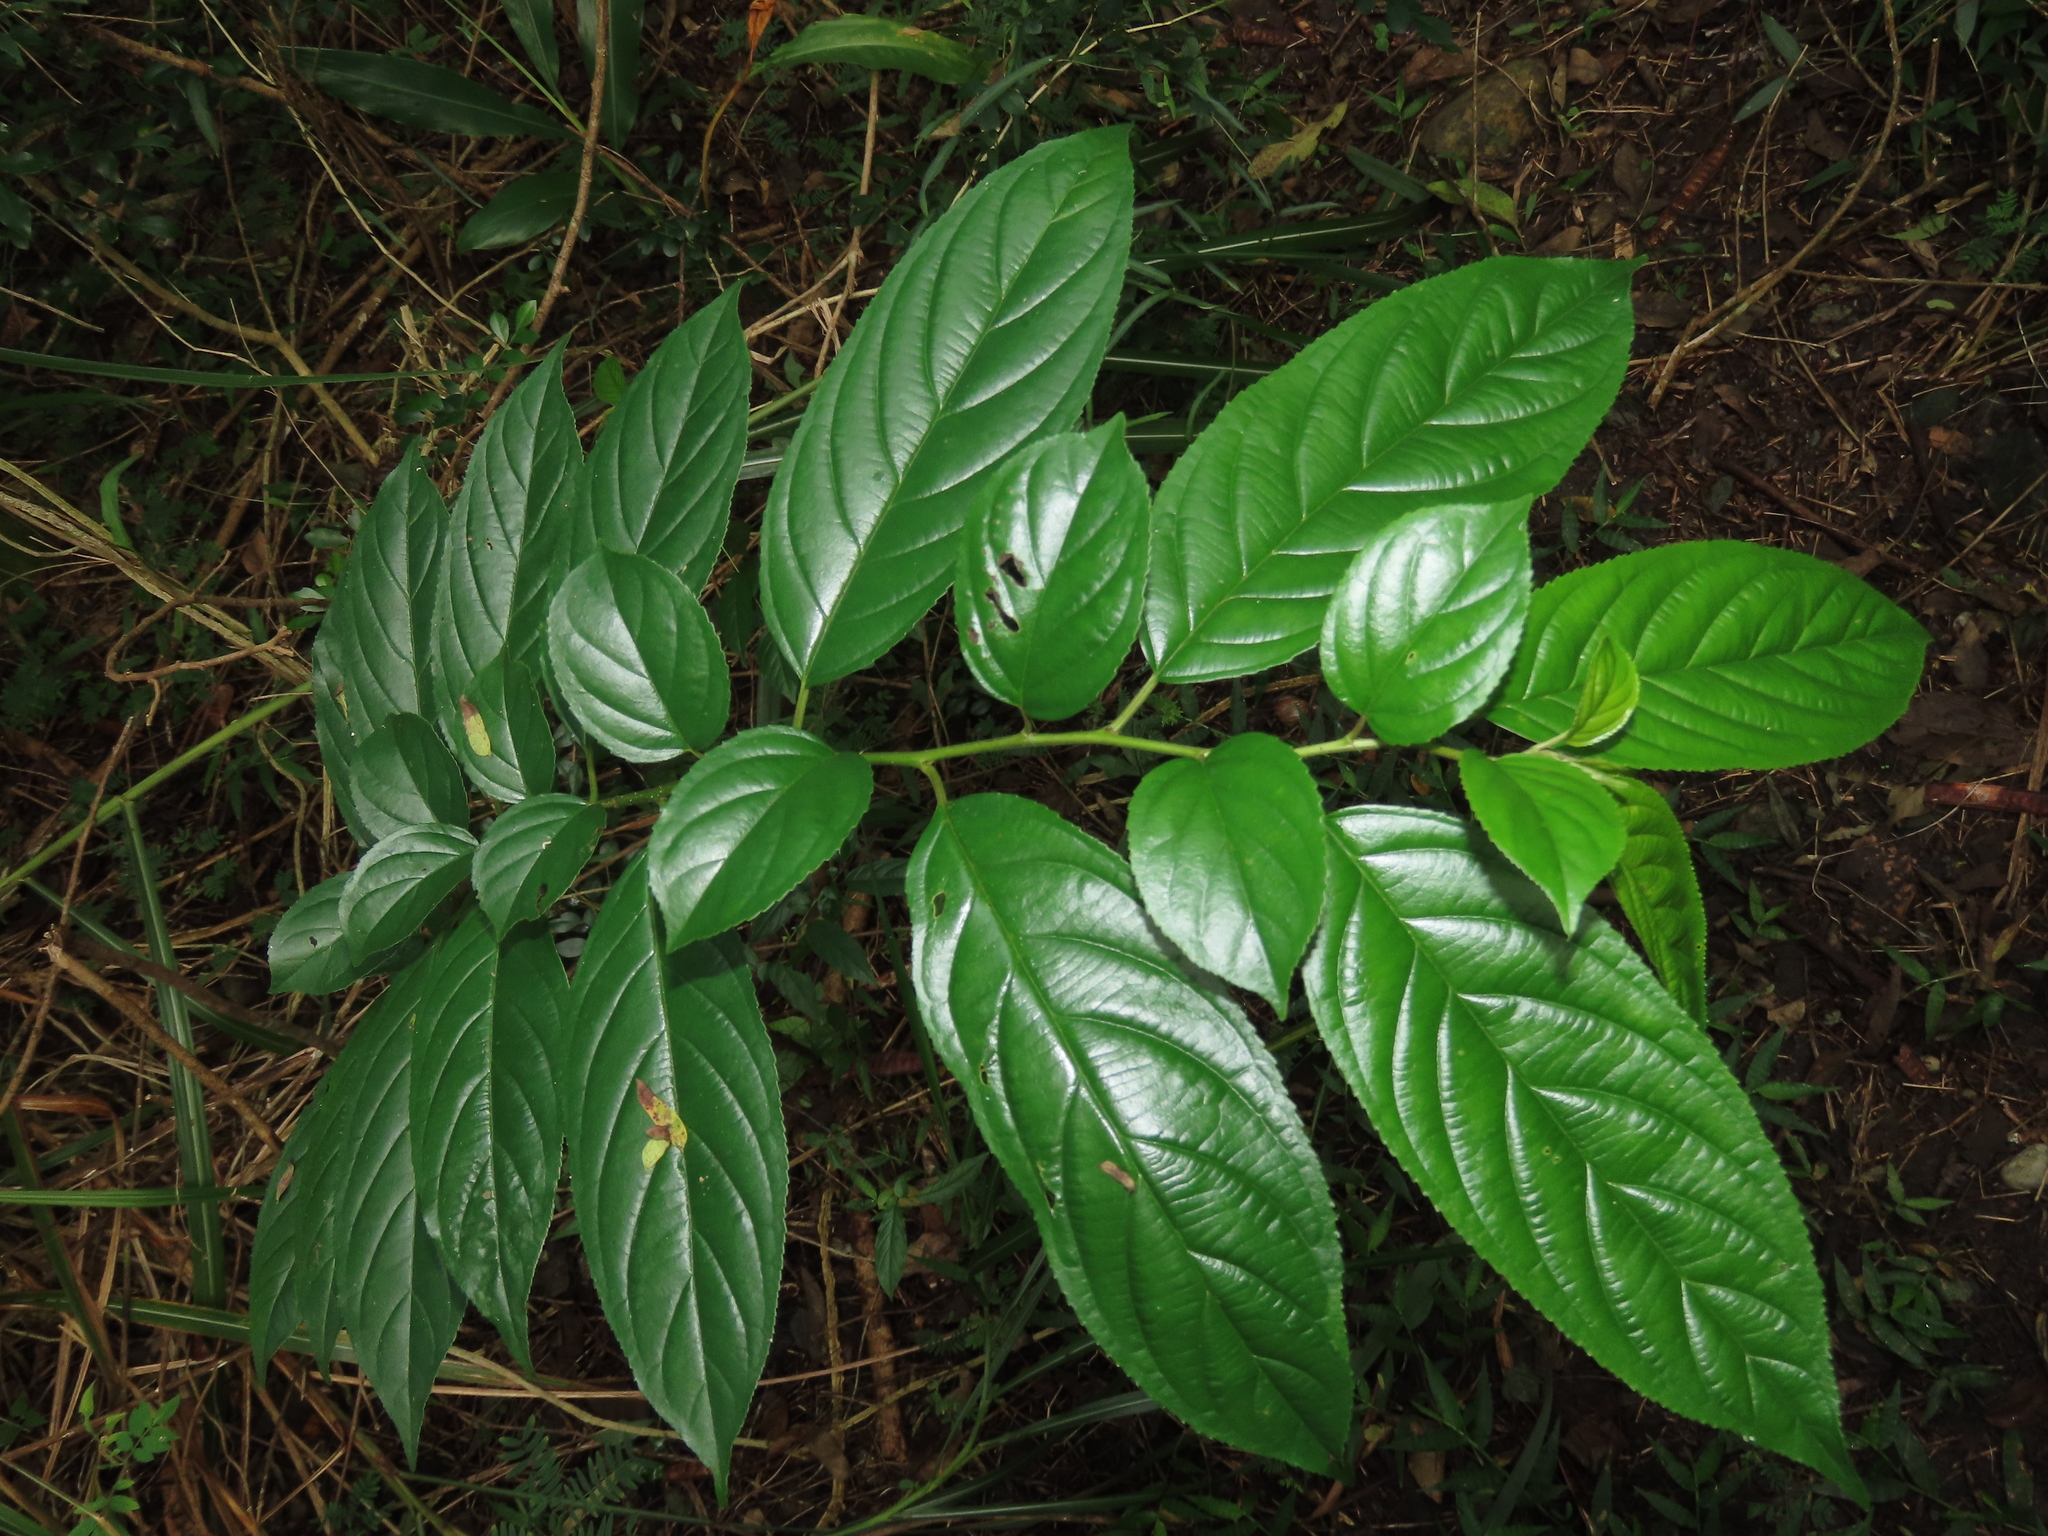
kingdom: Plantae
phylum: Tracheophyta
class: Magnoliopsida
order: Rosales
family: Rhamnaceae
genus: Rhamnus
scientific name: Rhamnus formosana
